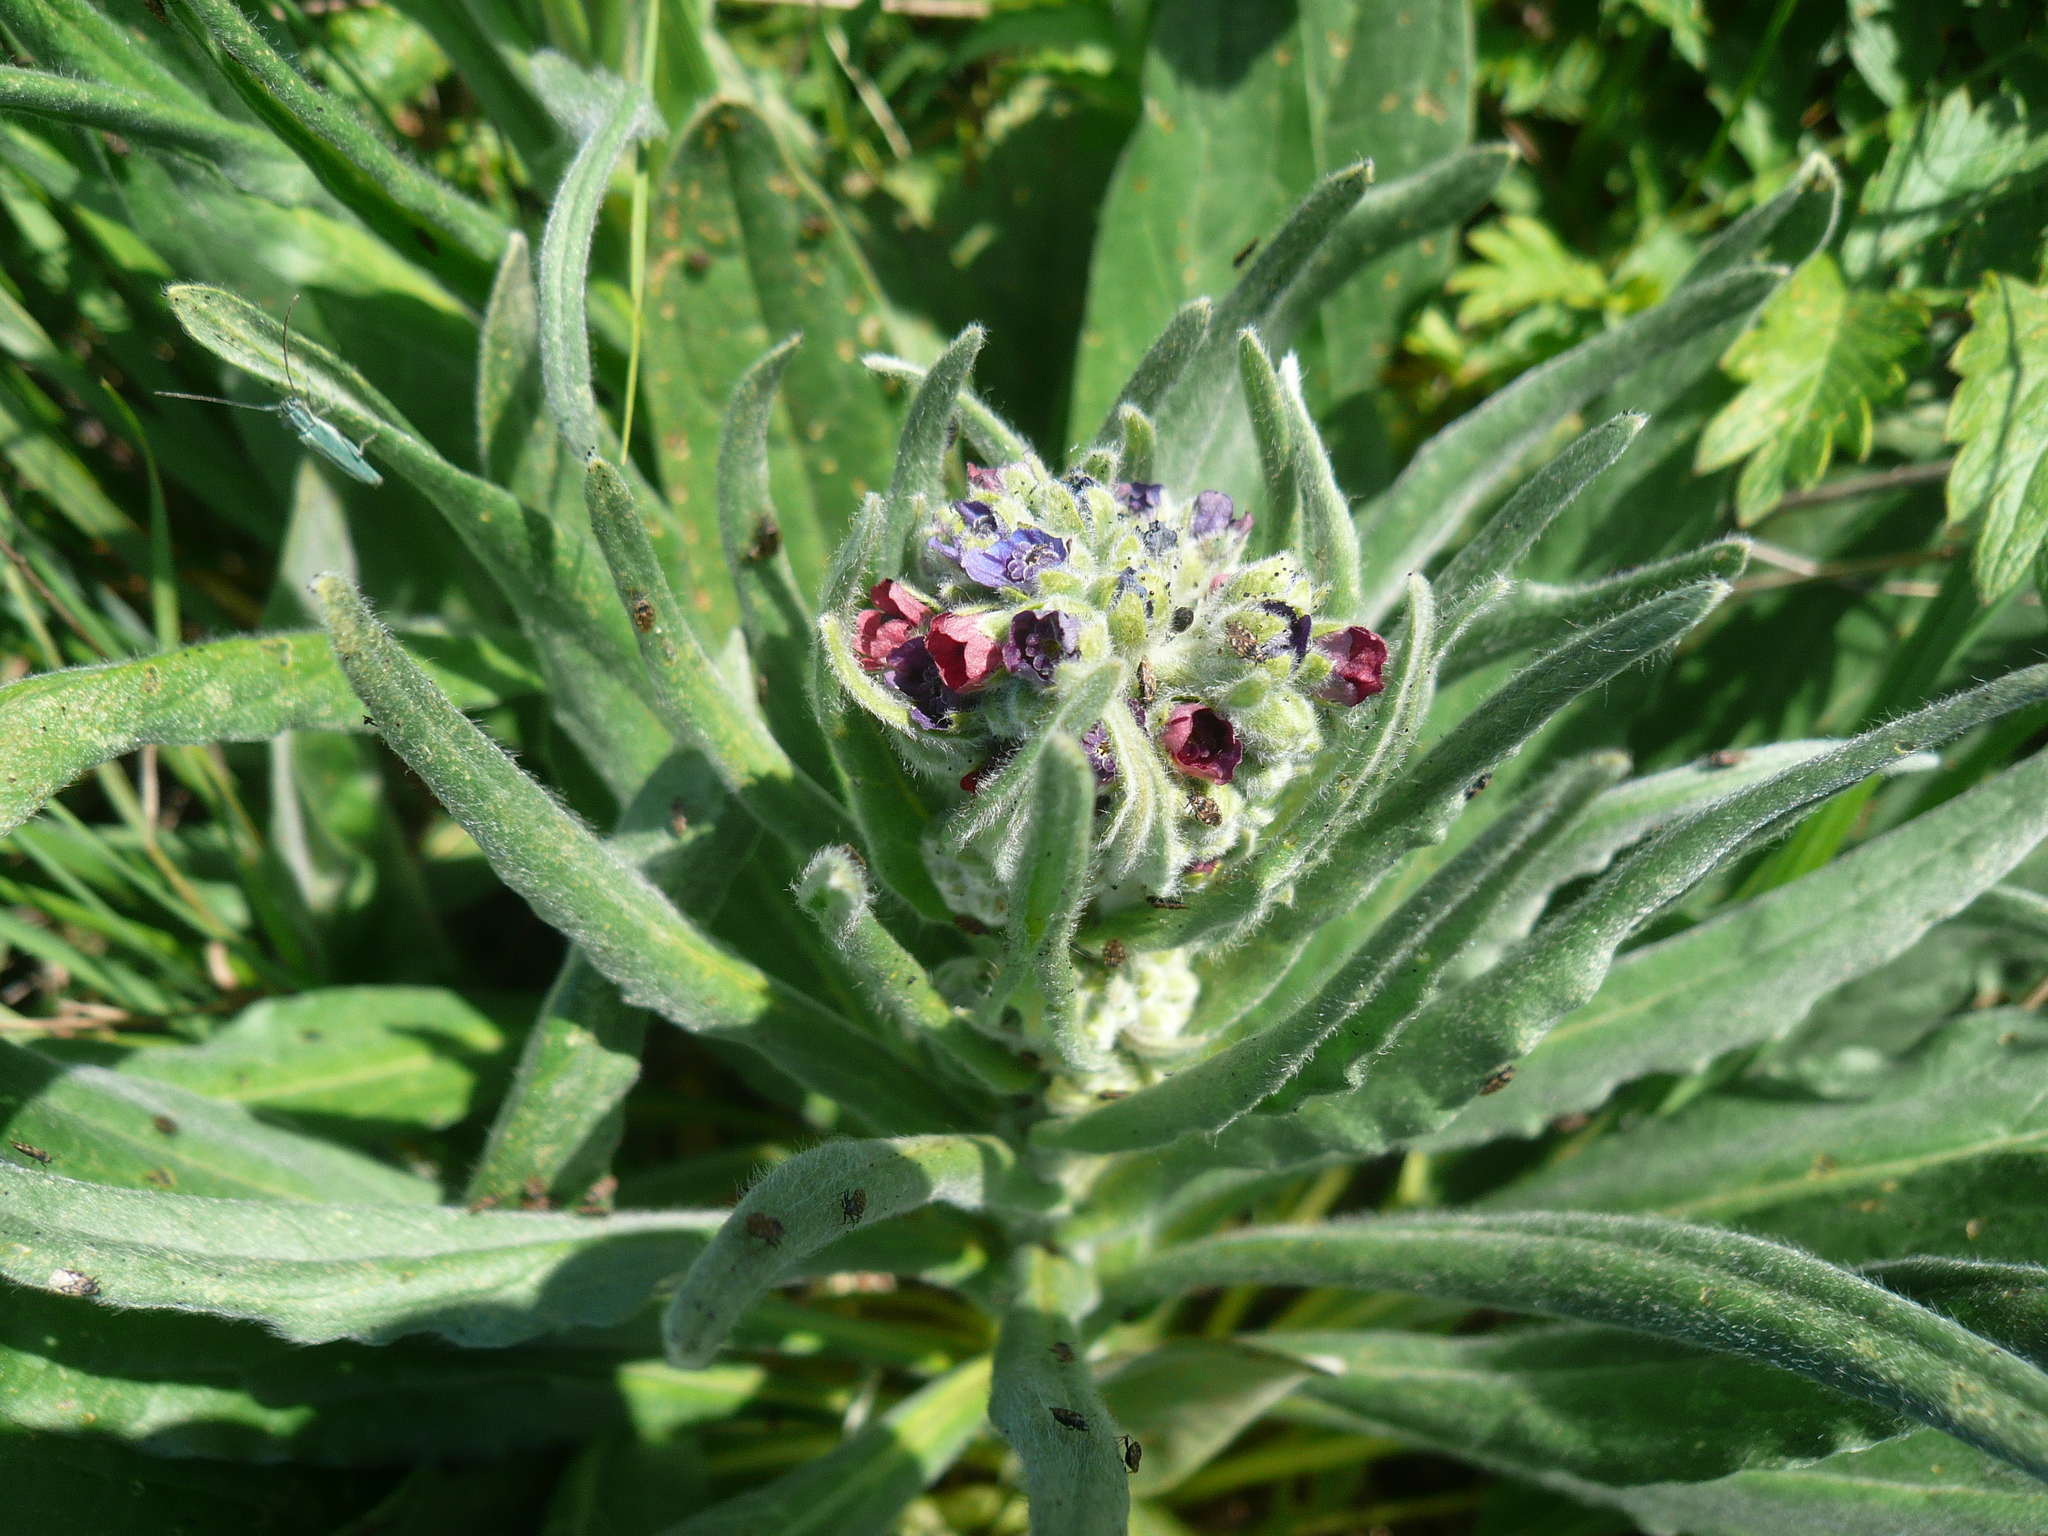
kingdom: Plantae
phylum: Tracheophyta
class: Magnoliopsida
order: Boraginales
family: Boraginaceae
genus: Cynoglossum
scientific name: Cynoglossum officinale
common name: Hound's-tongue
